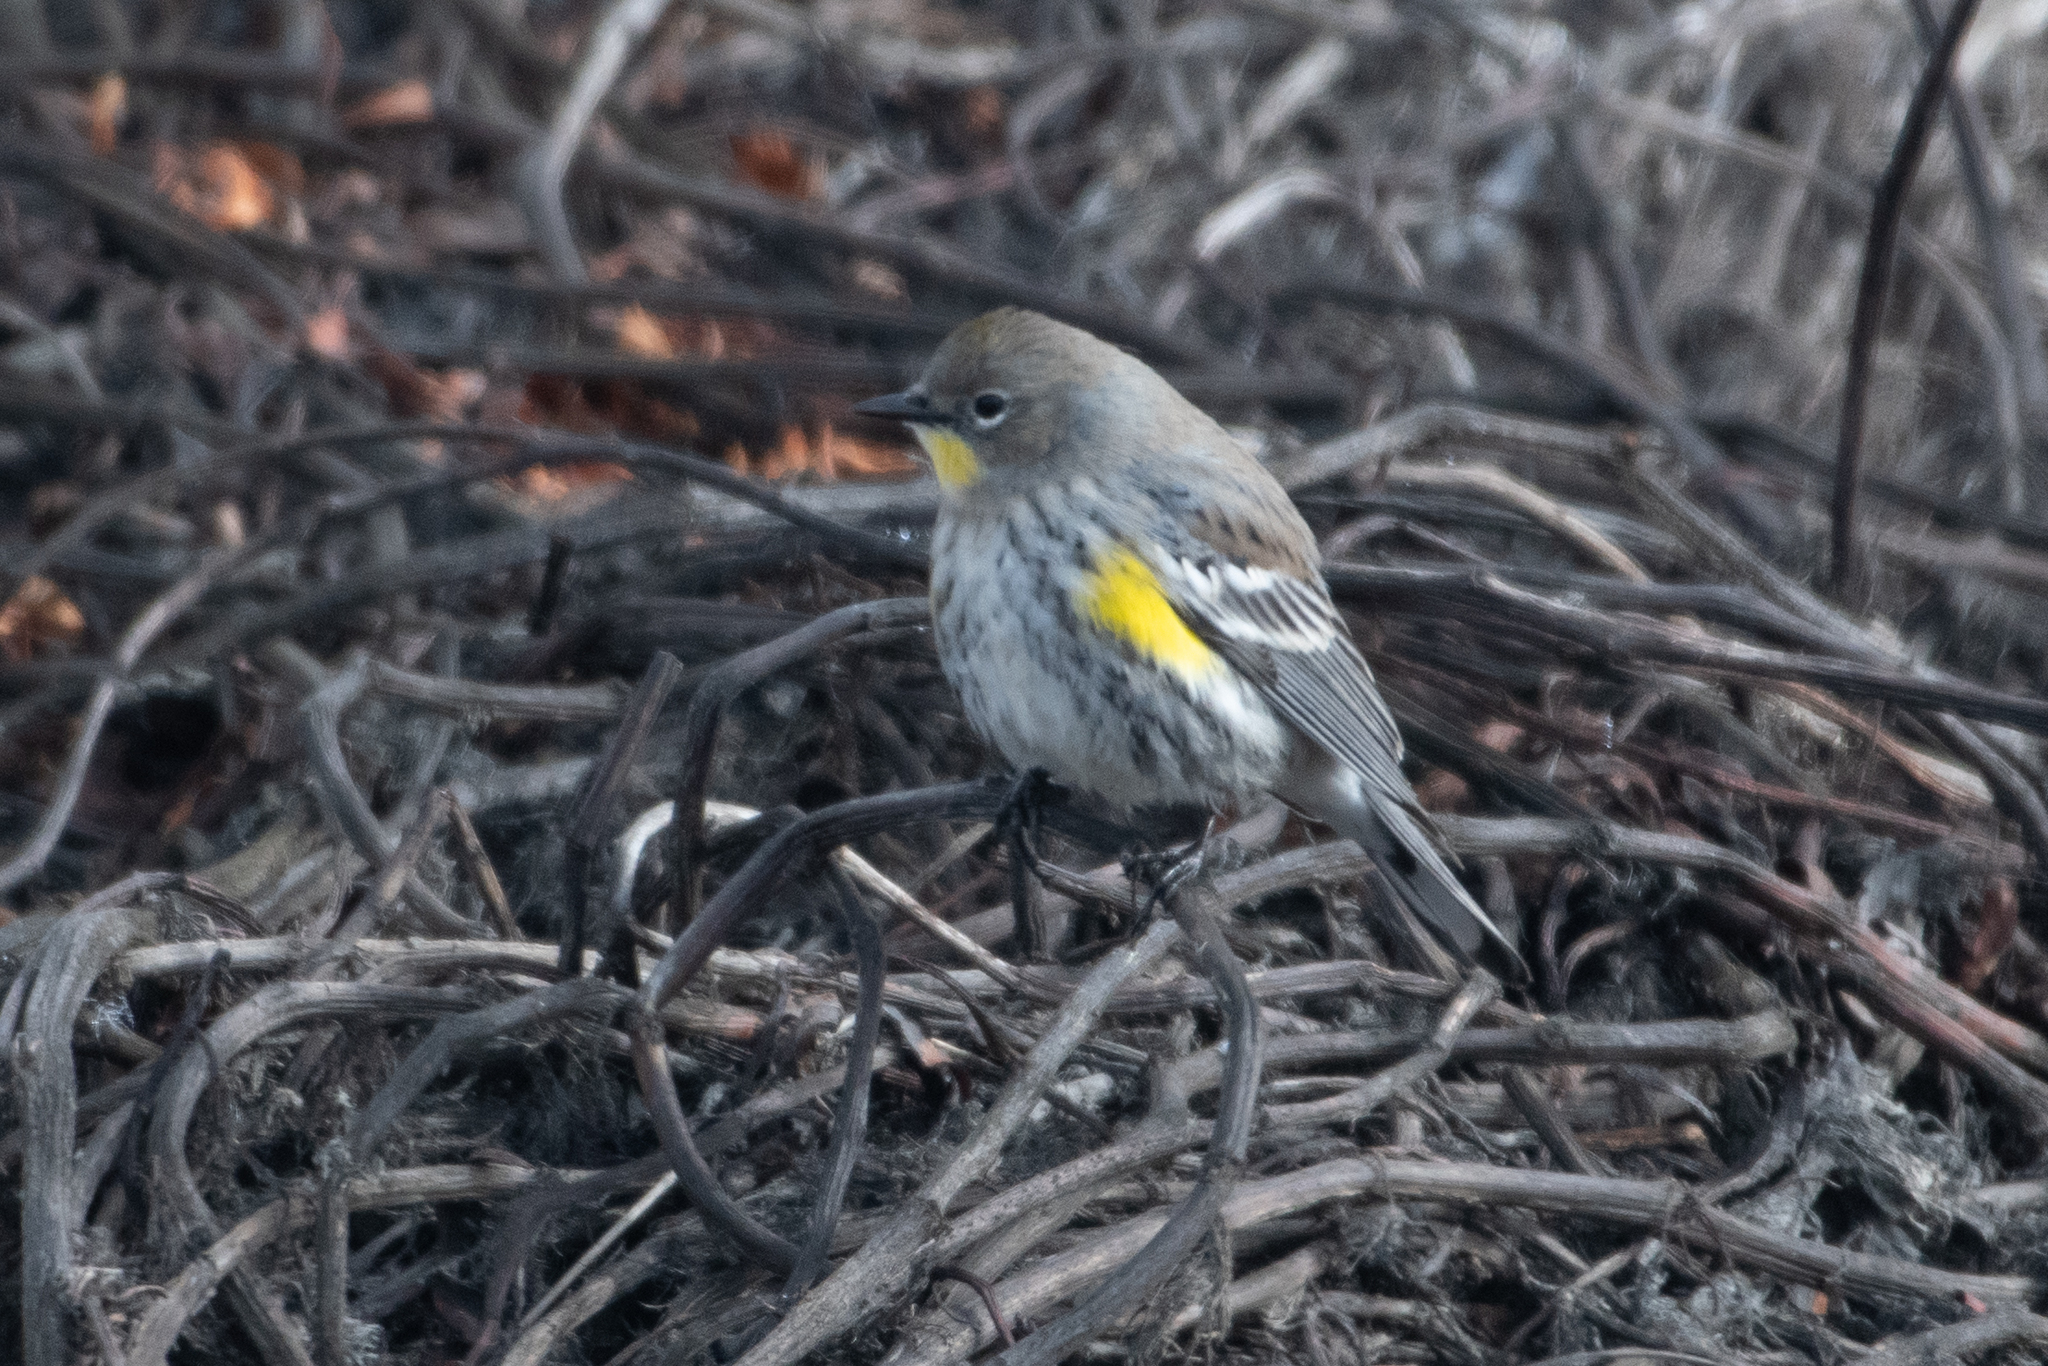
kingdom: Animalia
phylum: Chordata
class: Aves
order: Passeriformes
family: Parulidae
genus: Setophaga
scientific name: Setophaga coronata
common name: Myrtle warbler
